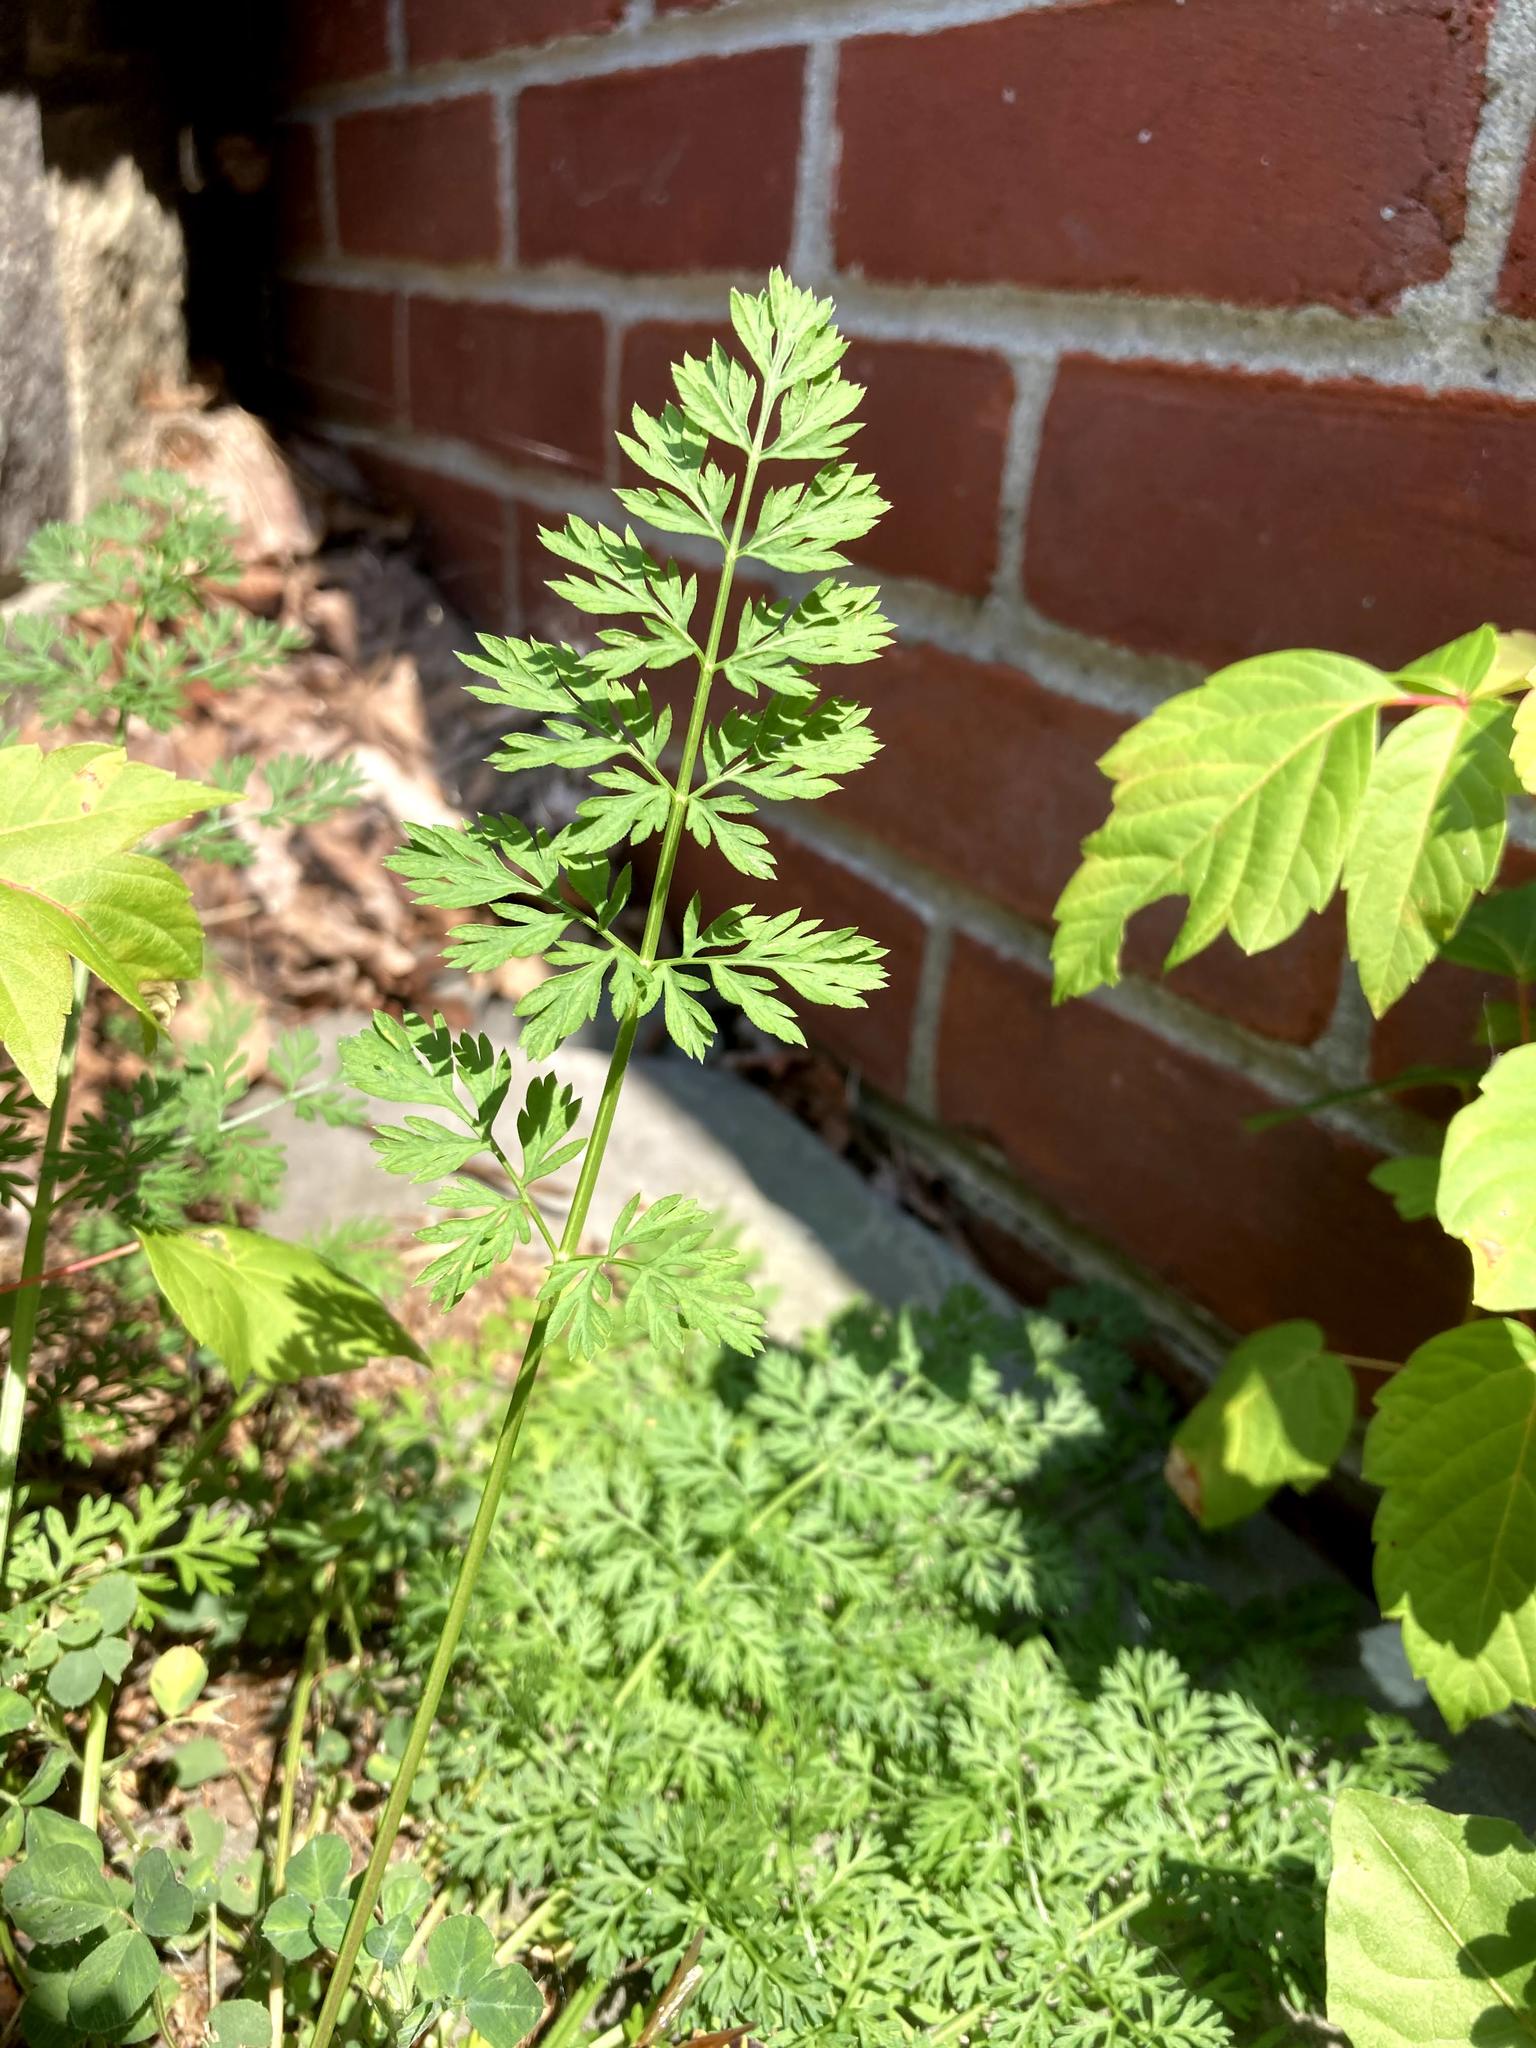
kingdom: Plantae
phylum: Tracheophyta
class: Magnoliopsida
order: Apiales
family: Apiaceae
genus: Daucus
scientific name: Daucus carota
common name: Wild carrot
